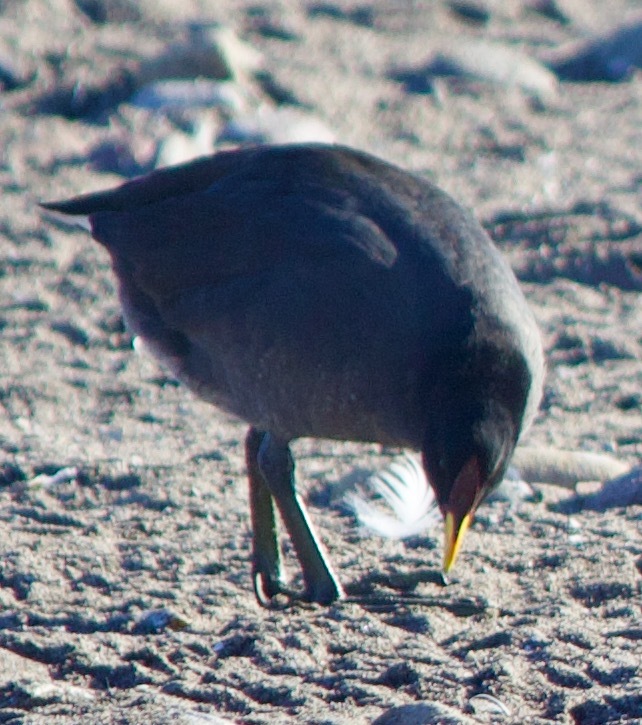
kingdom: Animalia
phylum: Chordata
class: Aves
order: Gruiformes
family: Rallidae
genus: Fulica
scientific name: Fulica rufifrons
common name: Red-fronted coot
